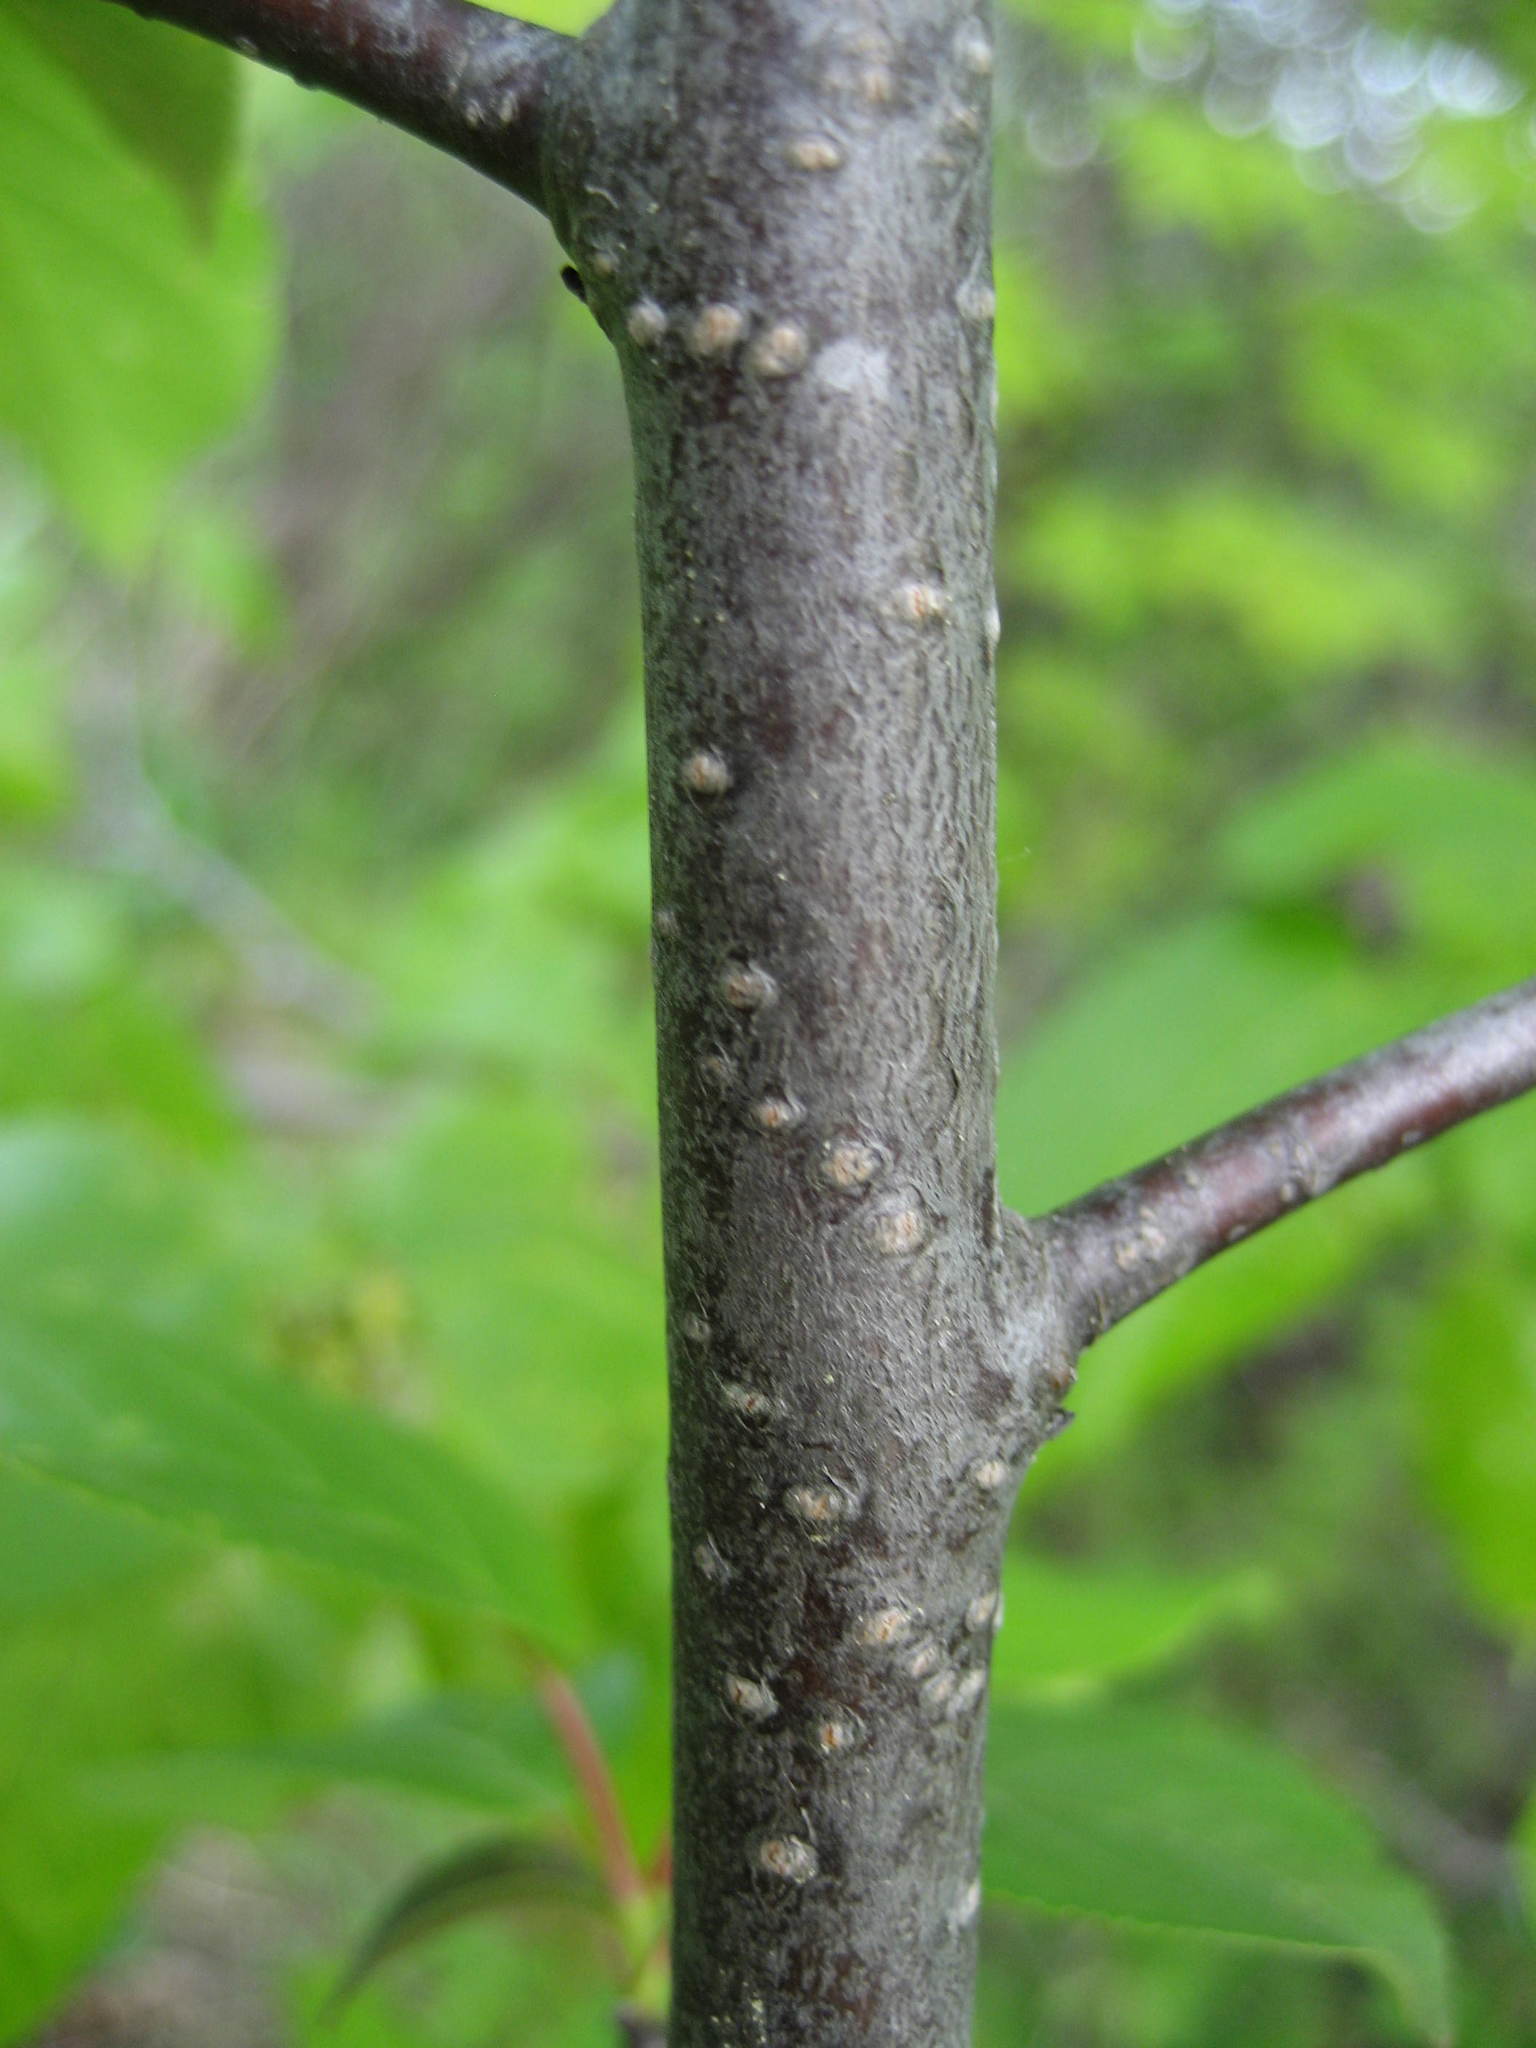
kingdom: Plantae
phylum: Tracheophyta
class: Magnoliopsida
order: Rosales
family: Rosaceae
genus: Prunus
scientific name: Prunus virginiana
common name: Chokecherry
